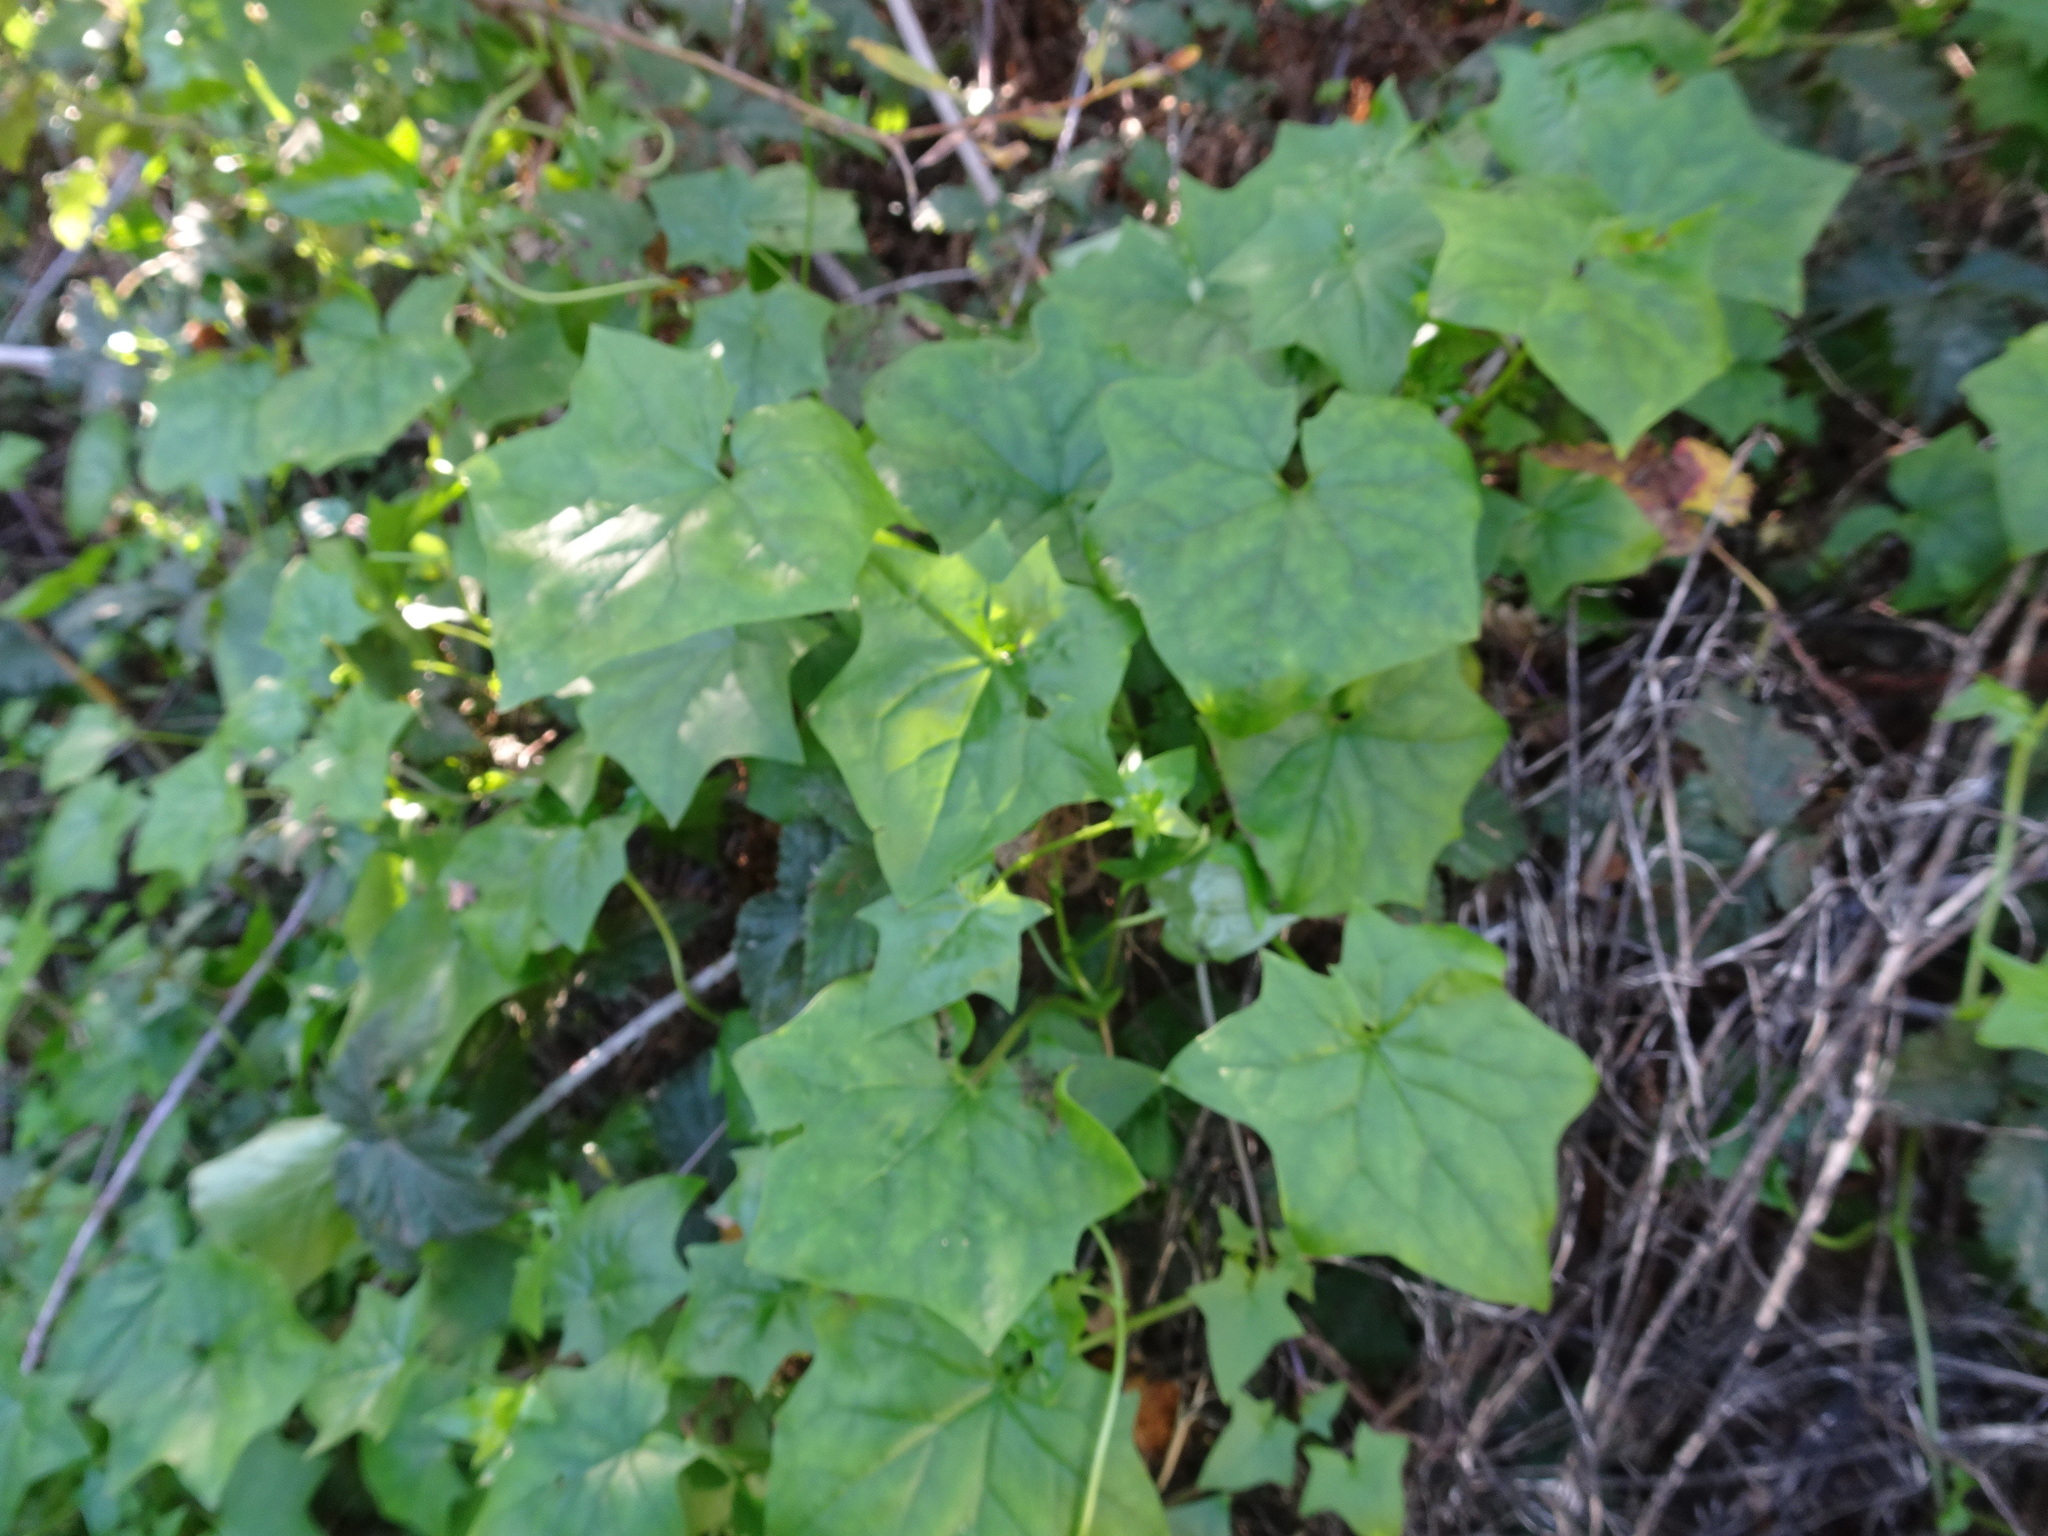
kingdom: Plantae
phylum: Tracheophyta
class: Magnoliopsida
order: Asterales
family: Asteraceae
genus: Delairea
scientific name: Delairea odorata
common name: Cape-ivy
